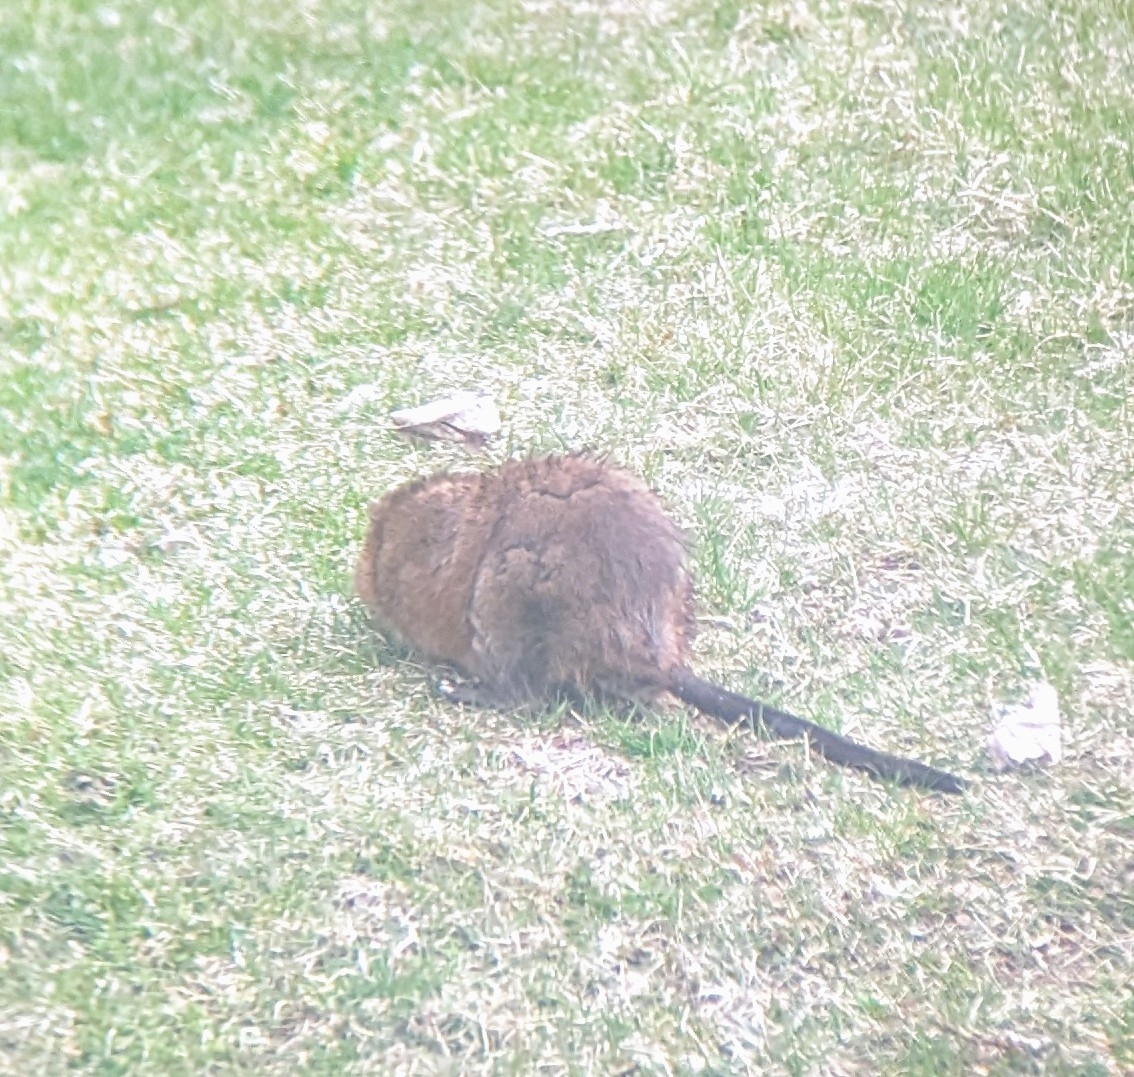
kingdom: Animalia
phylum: Chordata
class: Mammalia
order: Rodentia
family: Cricetidae
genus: Ondatra
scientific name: Ondatra zibethicus
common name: Muskrat
